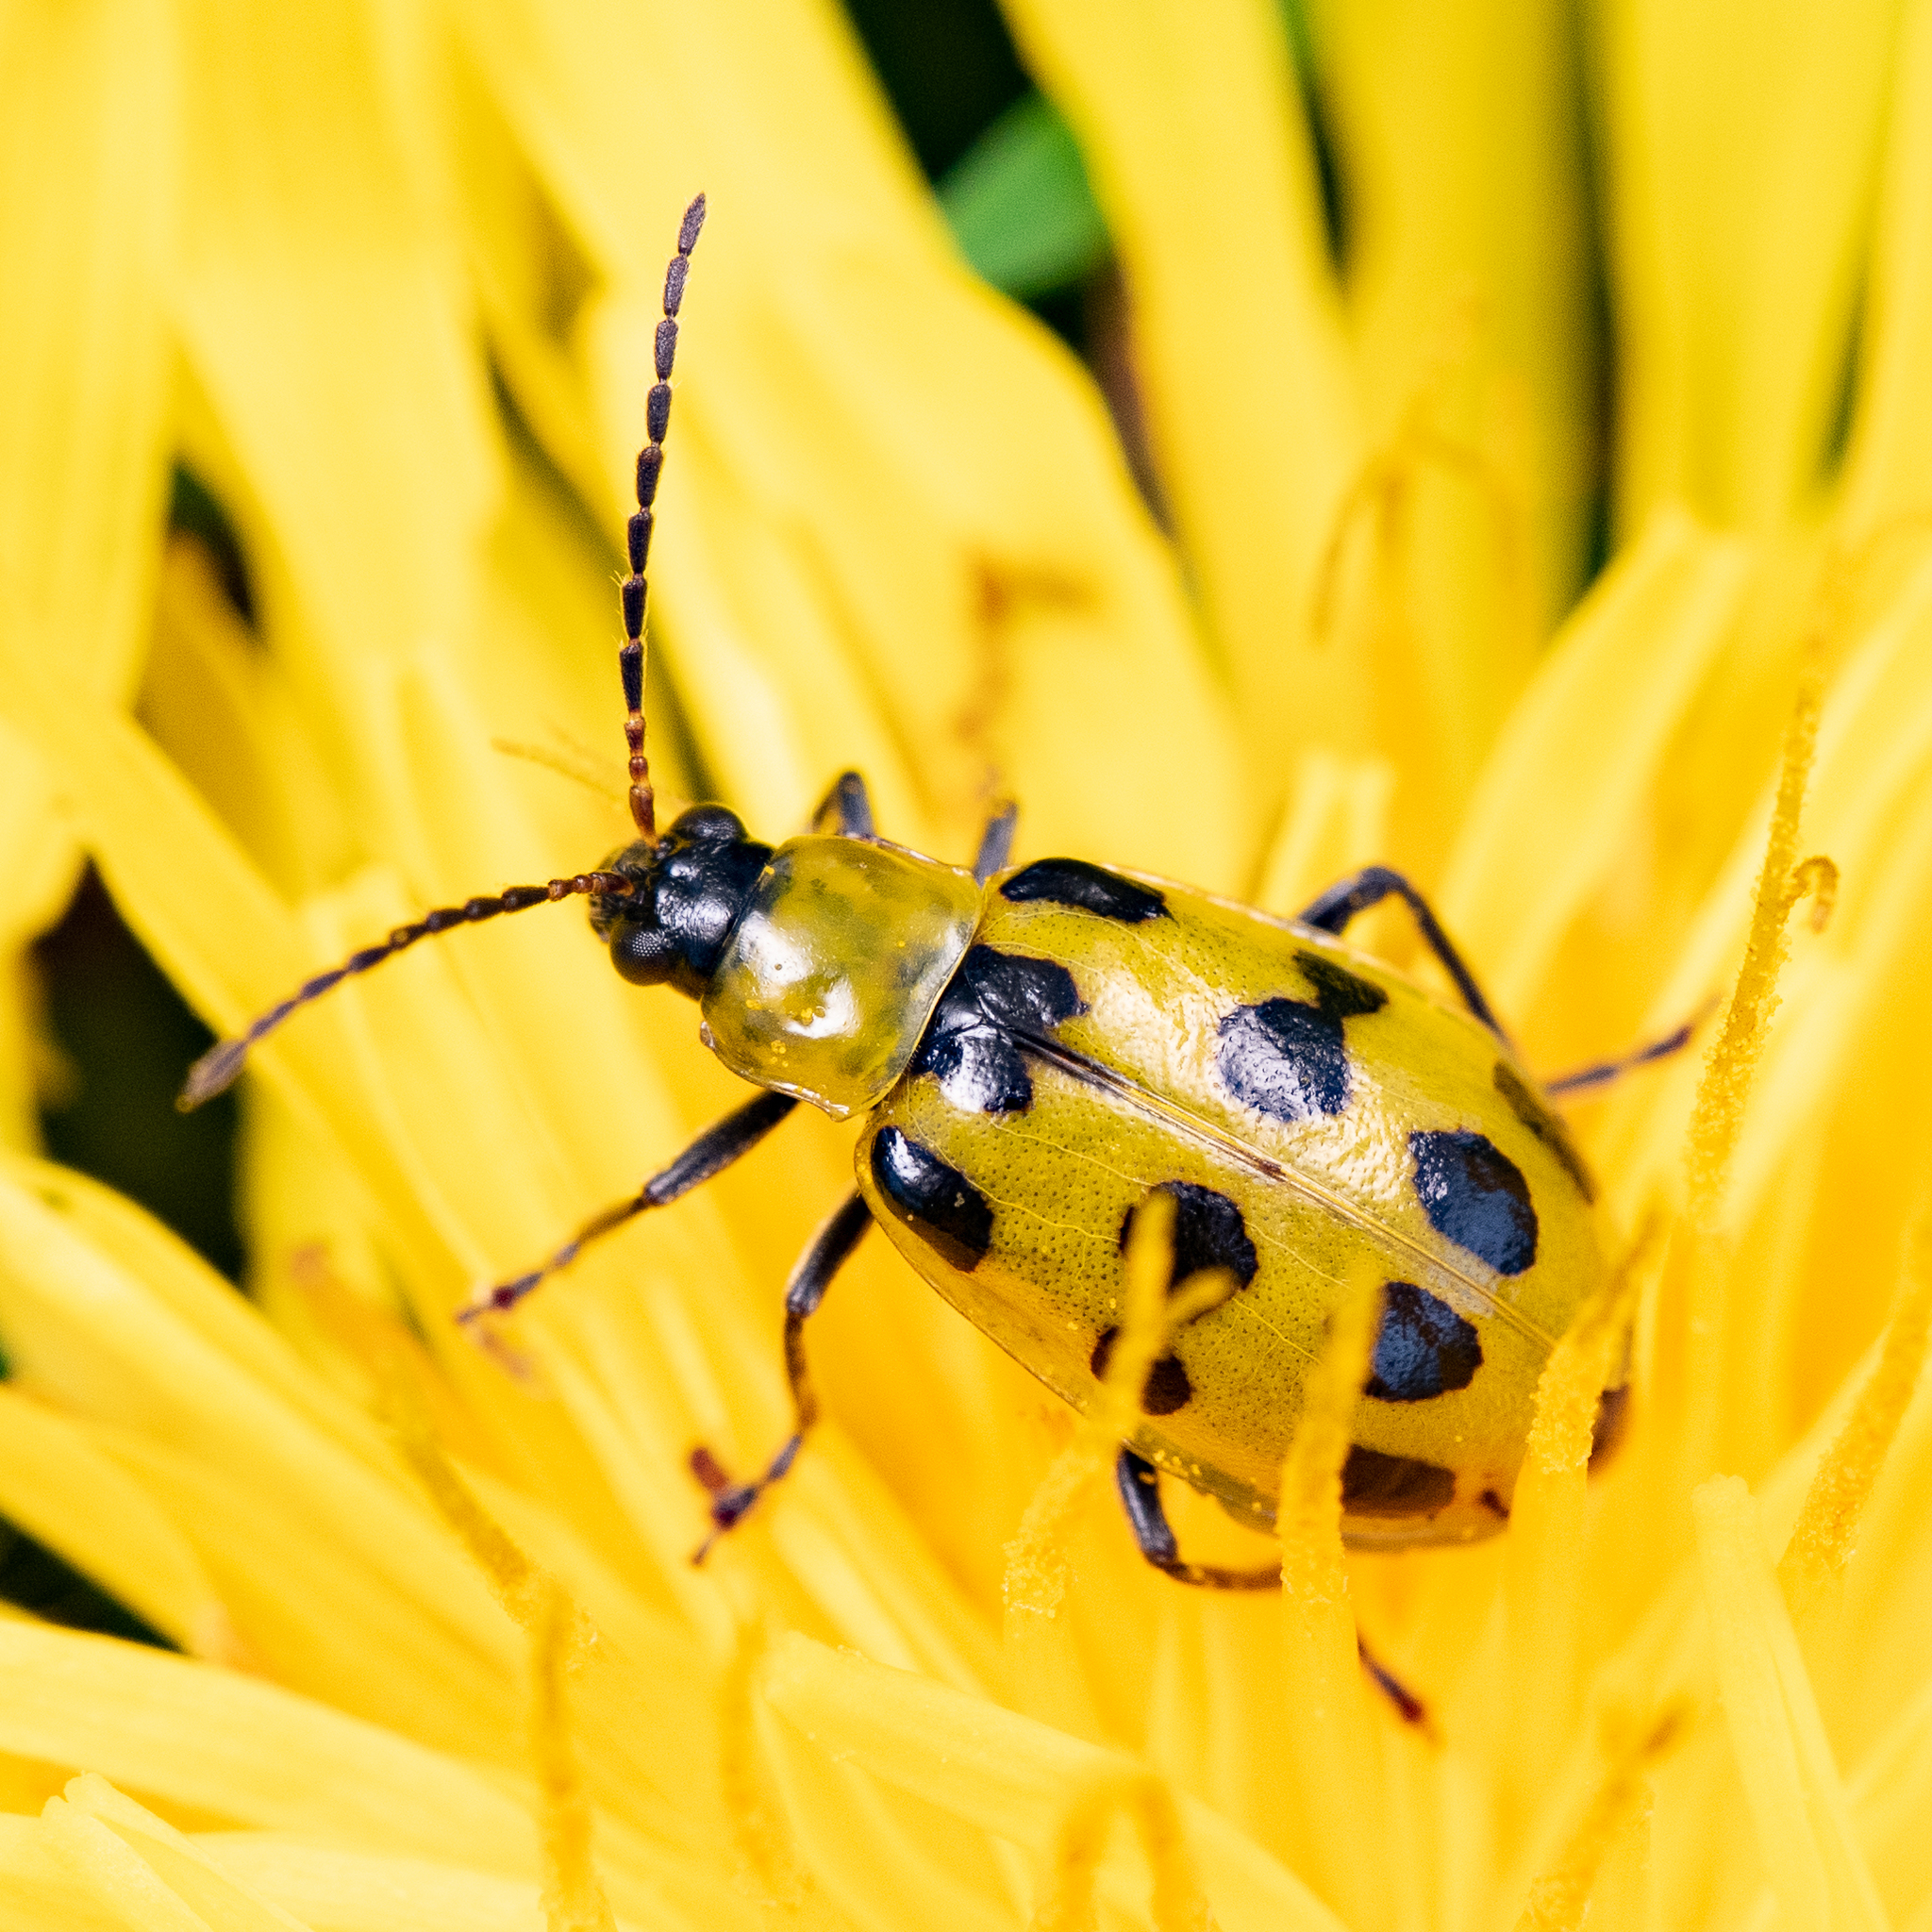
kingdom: Animalia
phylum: Arthropoda
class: Insecta
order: Coleoptera
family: Chrysomelidae
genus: Diabrotica
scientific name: Diabrotica undecimpunctata
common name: Spotted cucumber beetle
